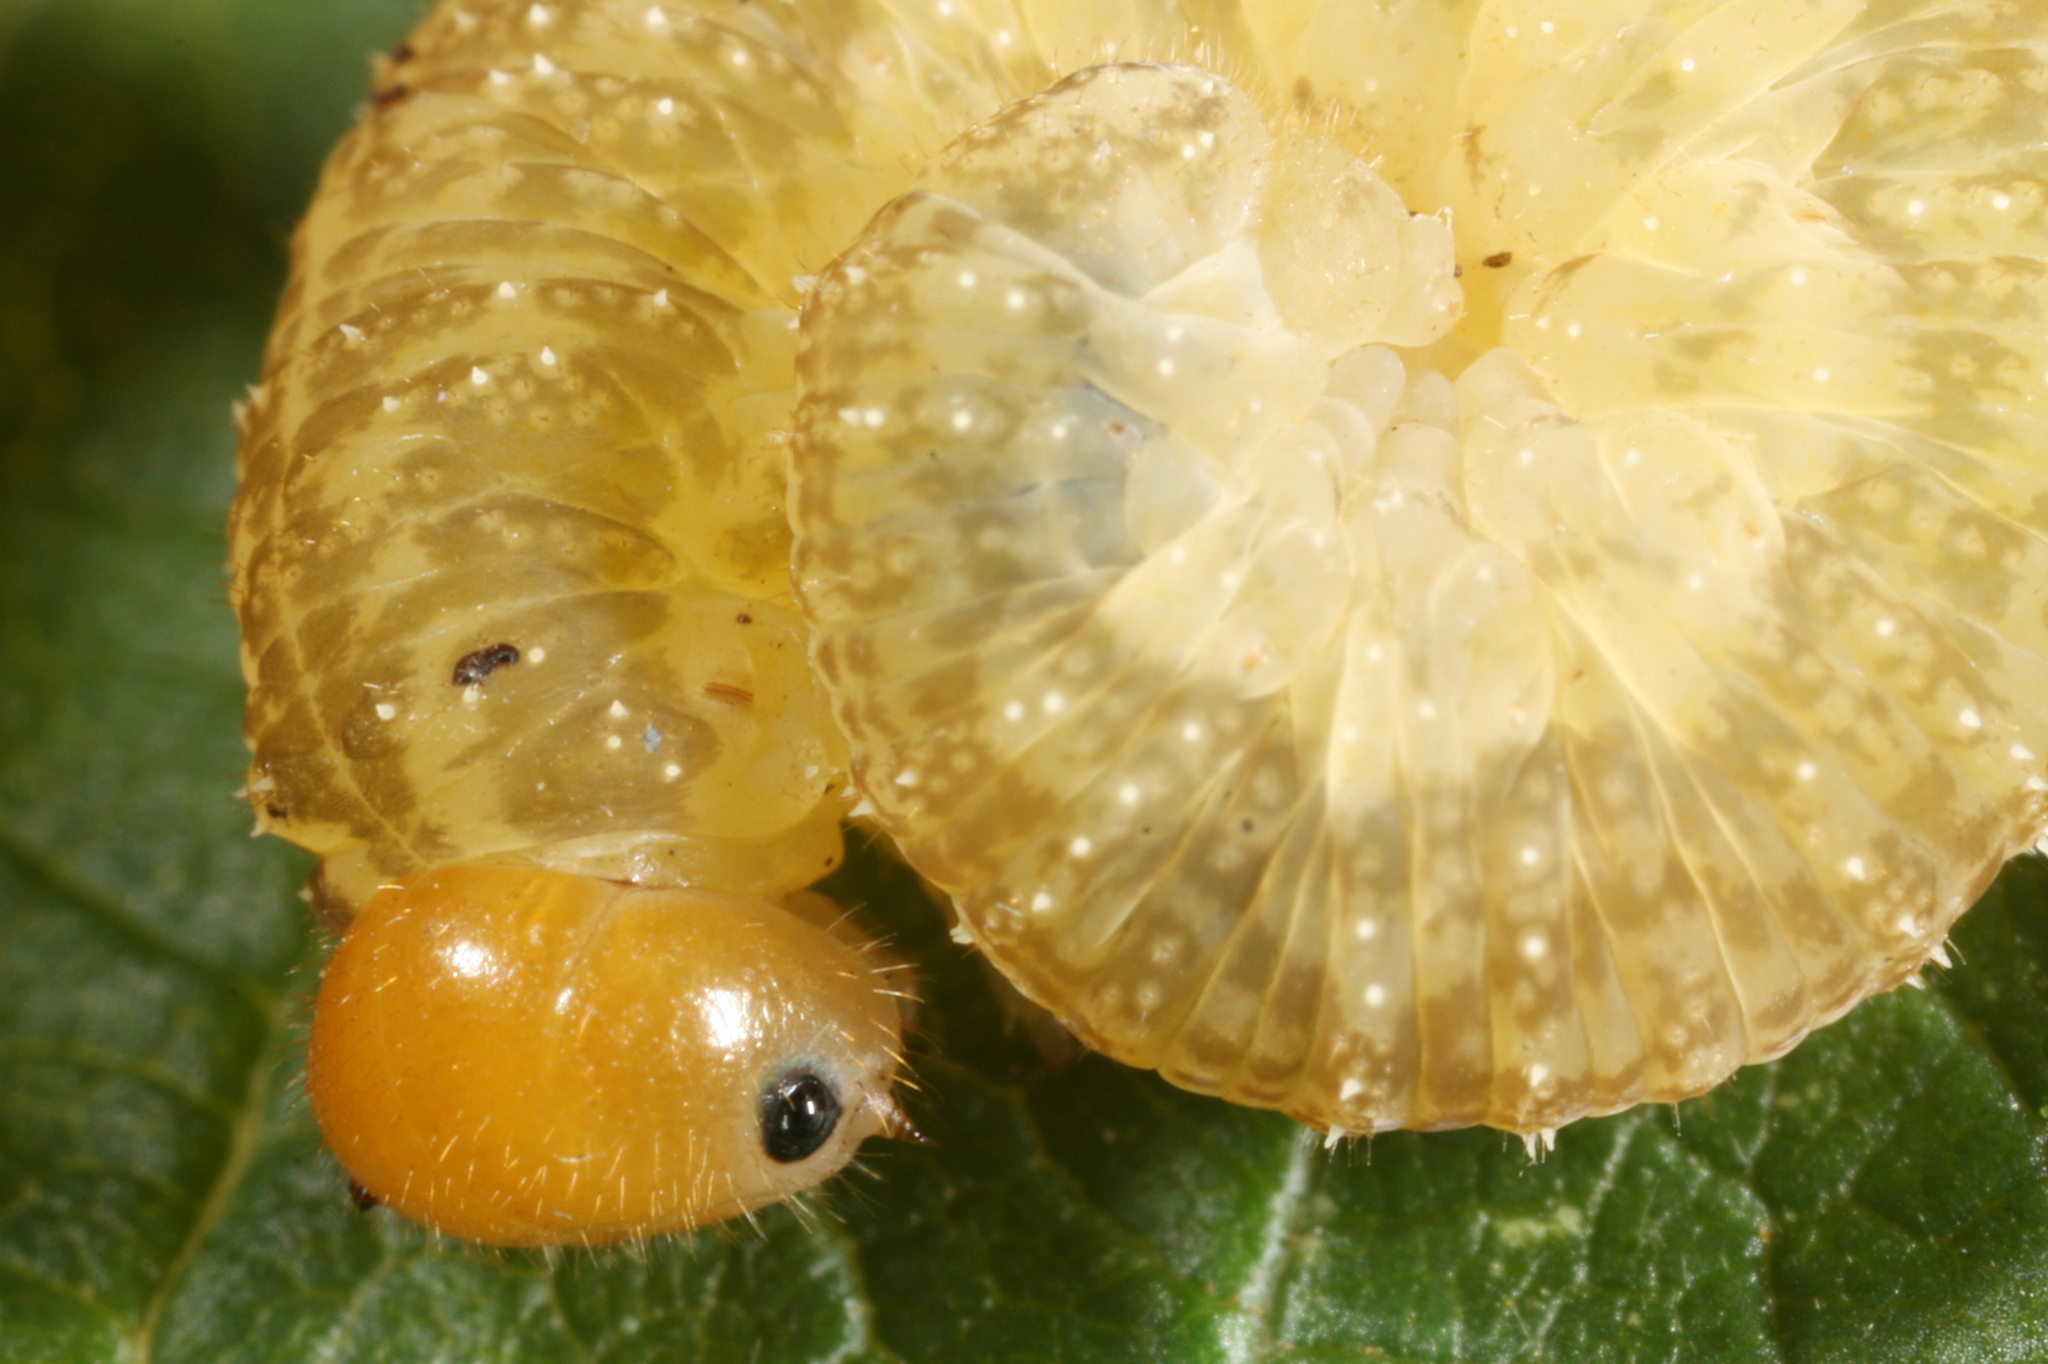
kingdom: Animalia
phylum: Arthropoda
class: Insecta
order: Hymenoptera
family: Tenthredinidae
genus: Tenthredo
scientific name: Tenthredo livida
